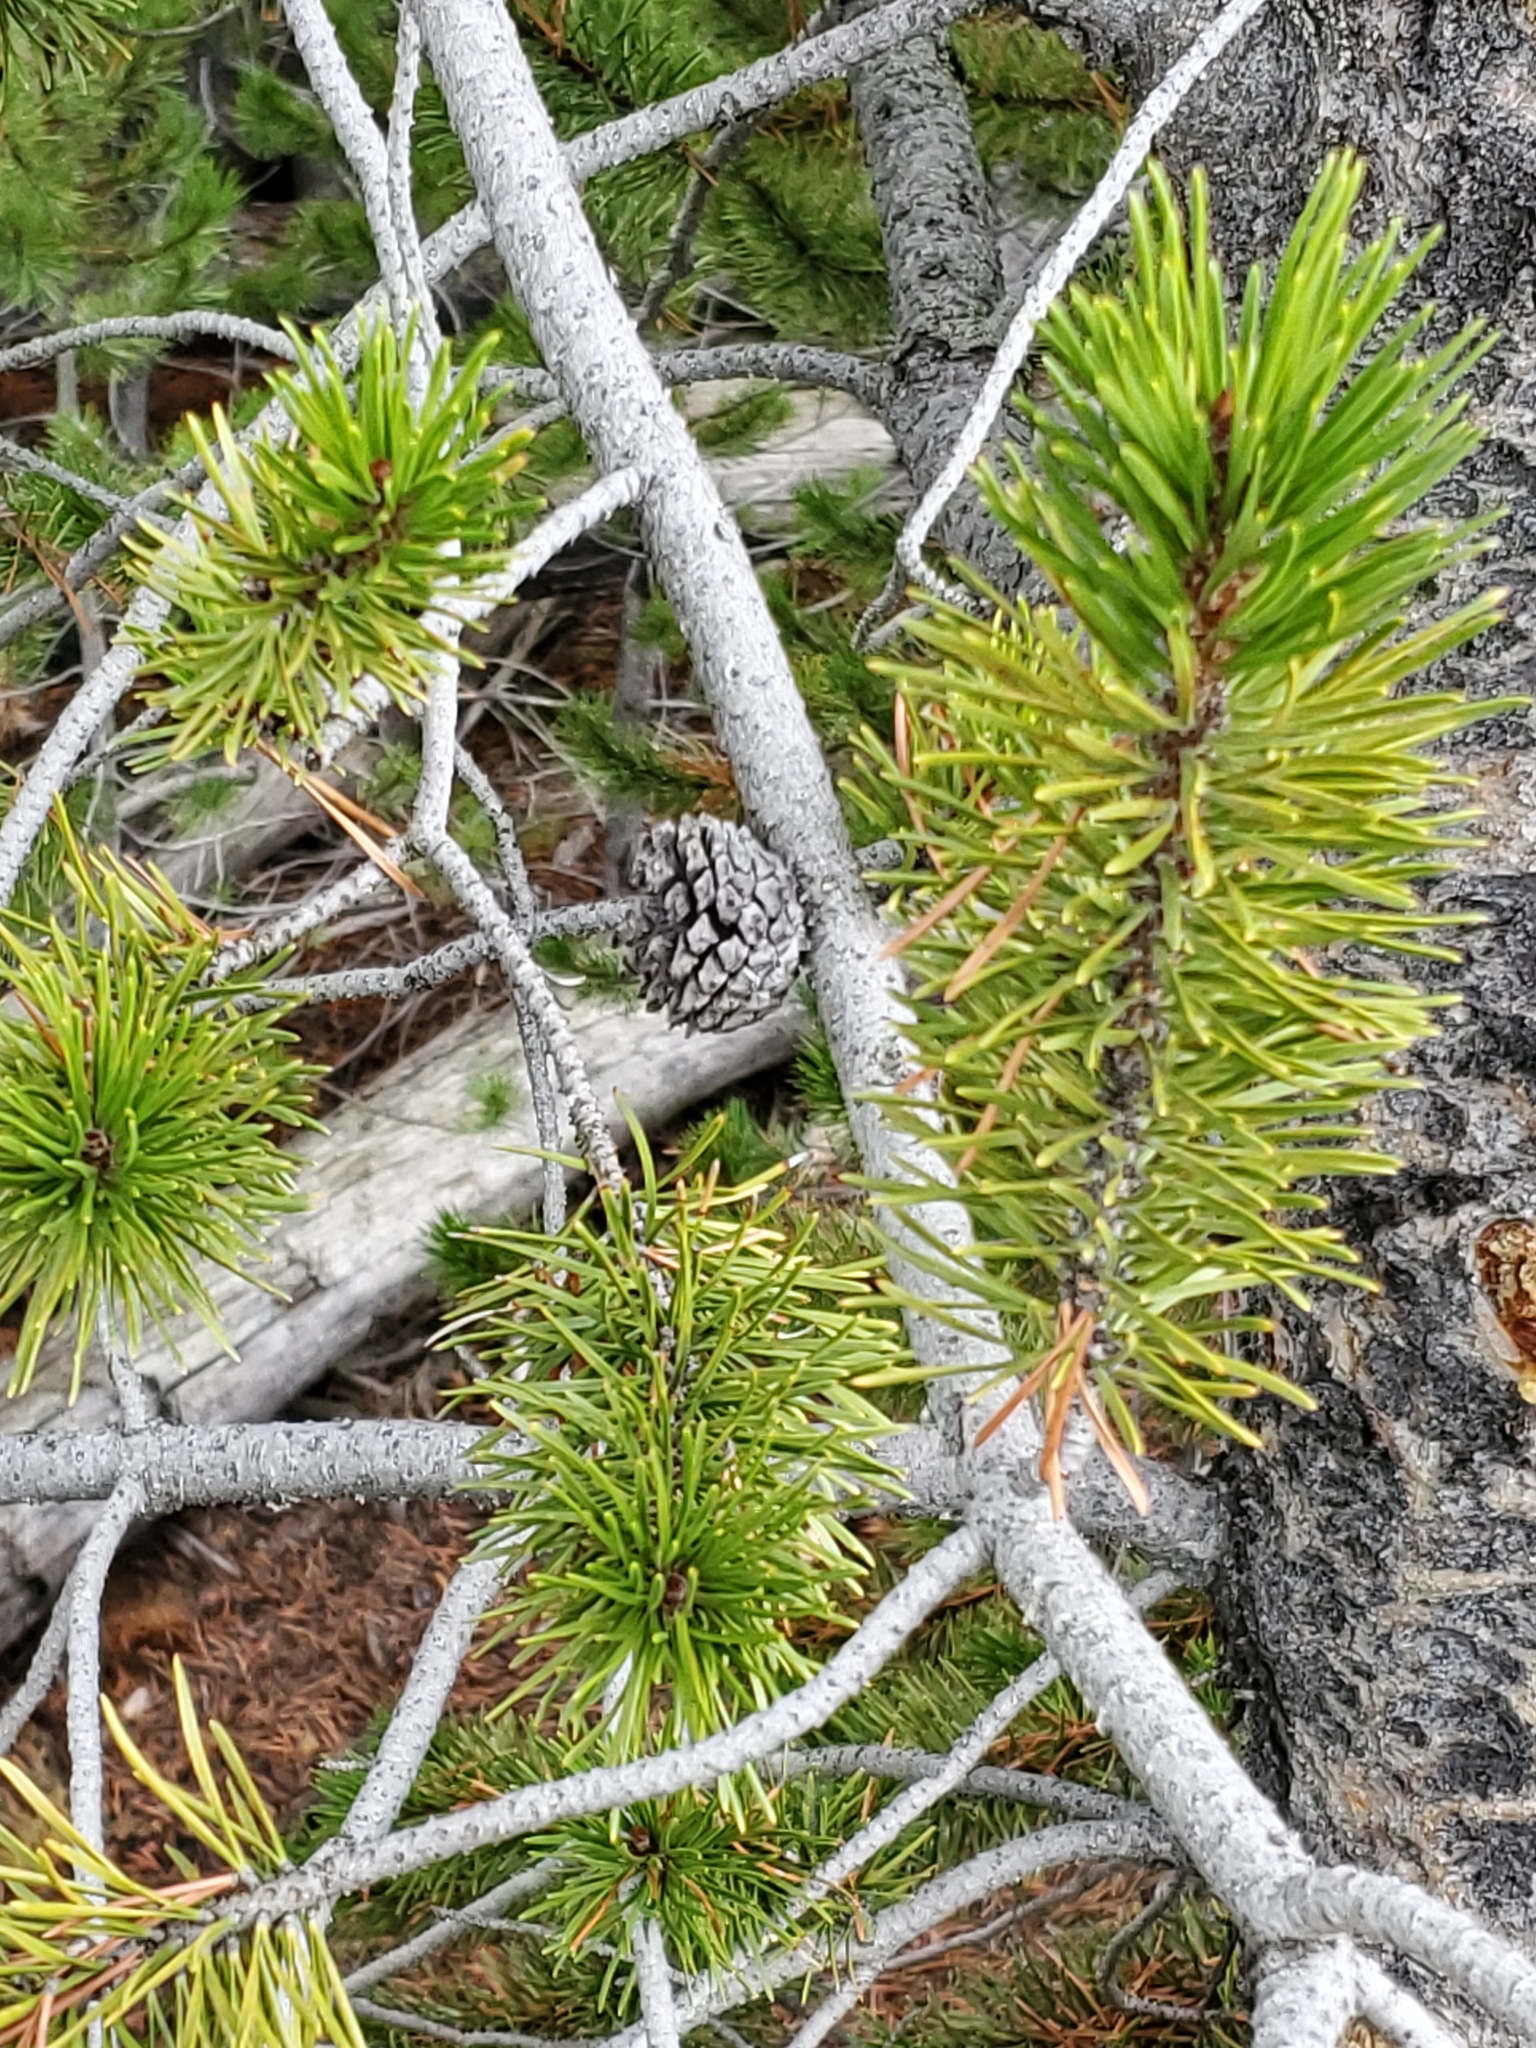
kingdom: Plantae
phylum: Tracheophyta
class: Pinopsida
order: Pinales
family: Pinaceae
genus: Pinus
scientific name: Pinus contorta
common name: Lodgepole pine
